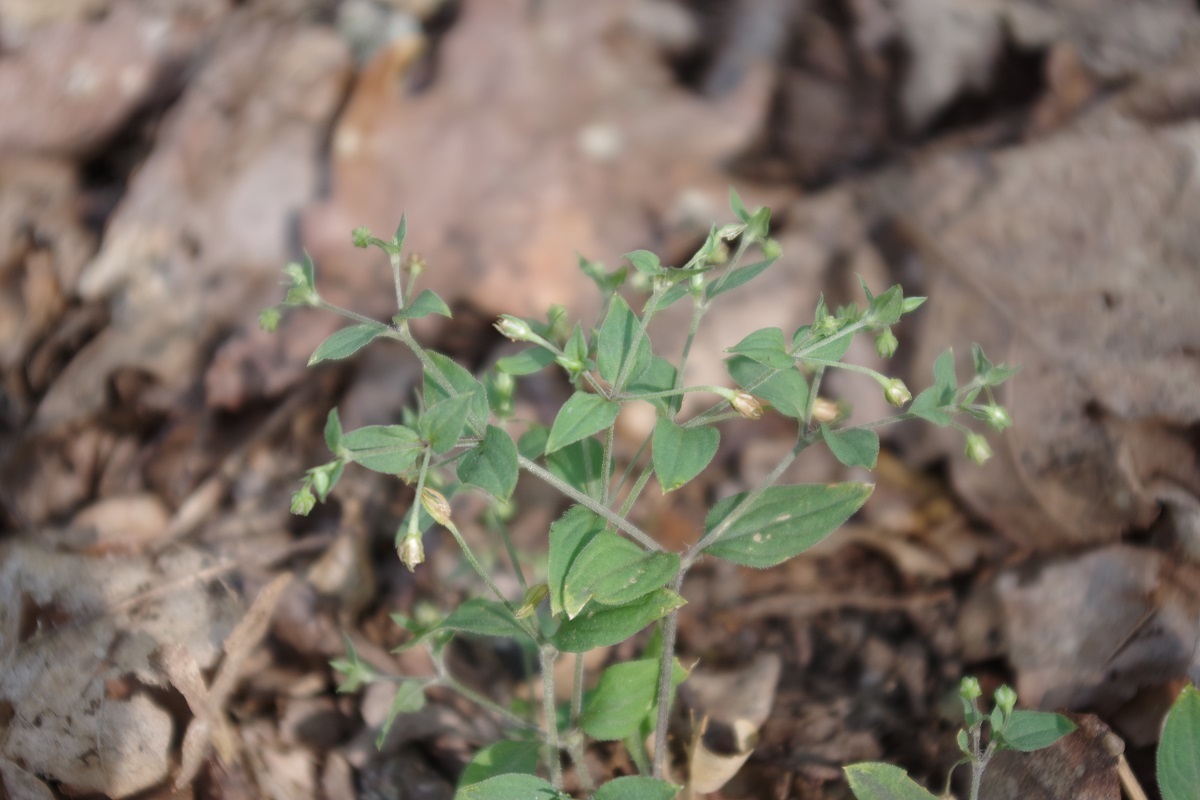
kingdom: Plantae
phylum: Tracheophyta
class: Magnoliopsida
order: Caryophyllales
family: Caryophyllaceae
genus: Moehringia
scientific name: Moehringia trinervia
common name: Three-nerved sandwort
